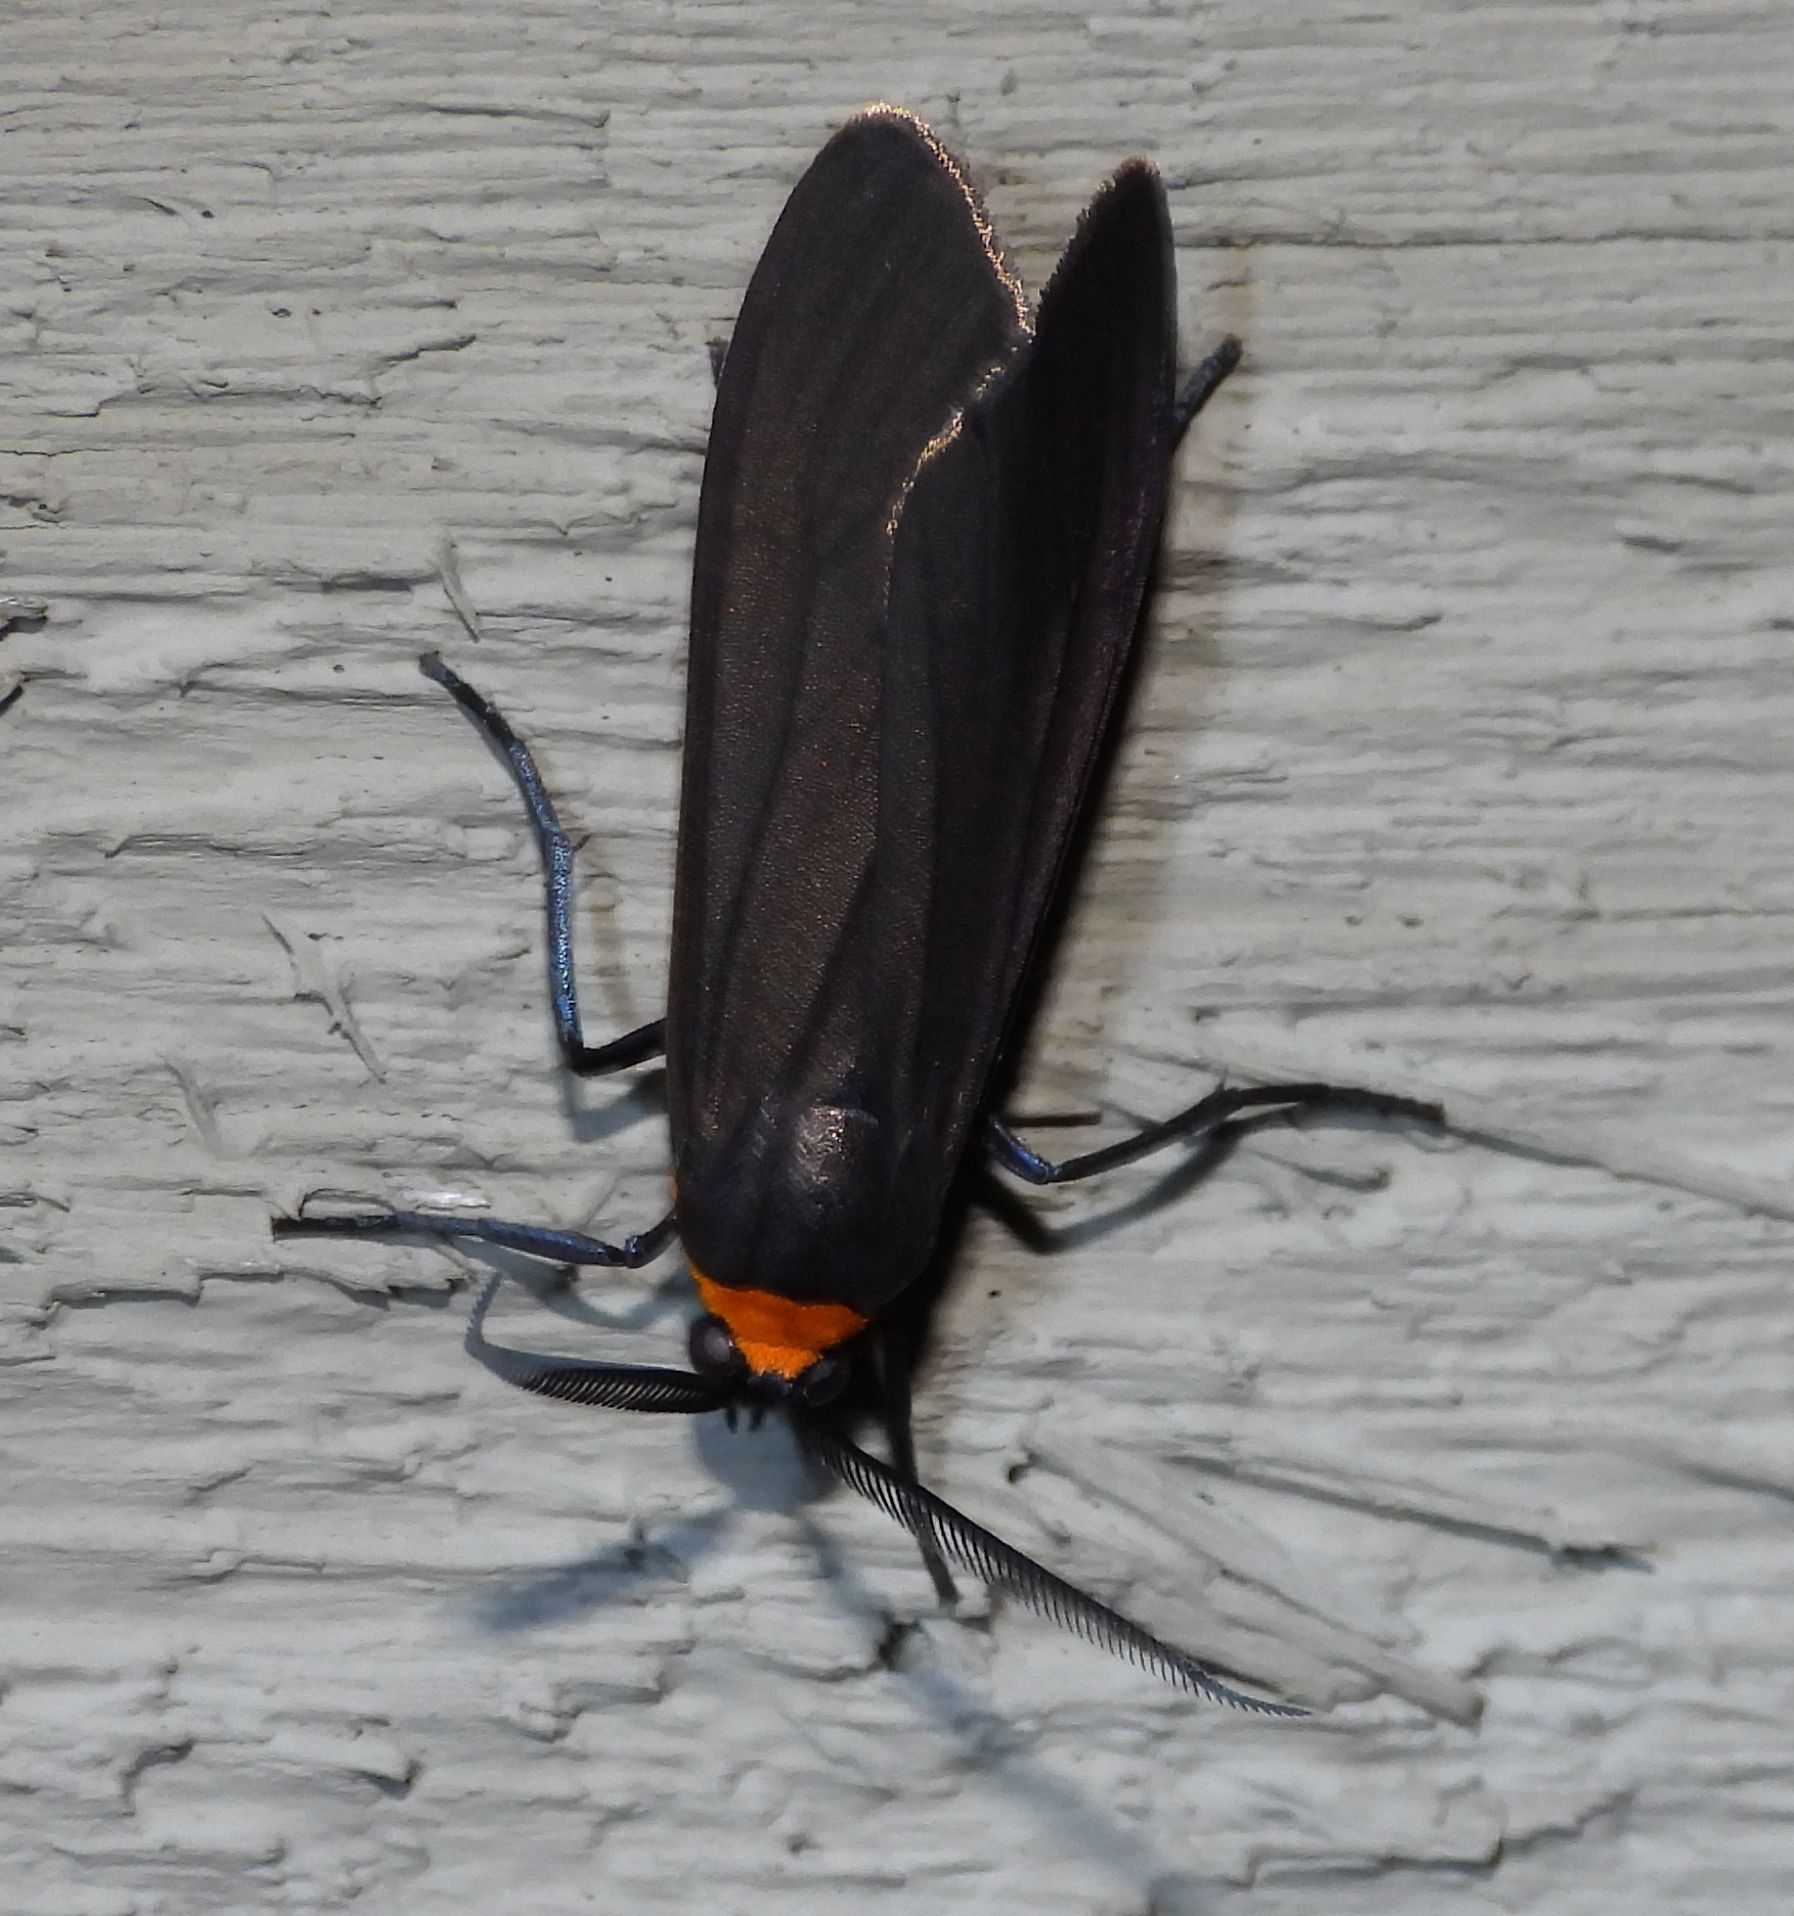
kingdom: Animalia
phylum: Arthropoda
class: Insecta
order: Lepidoptera
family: Erebidae
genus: Cisseps
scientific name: Cisseps fulvicollis
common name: Yellow-collared scape moth
